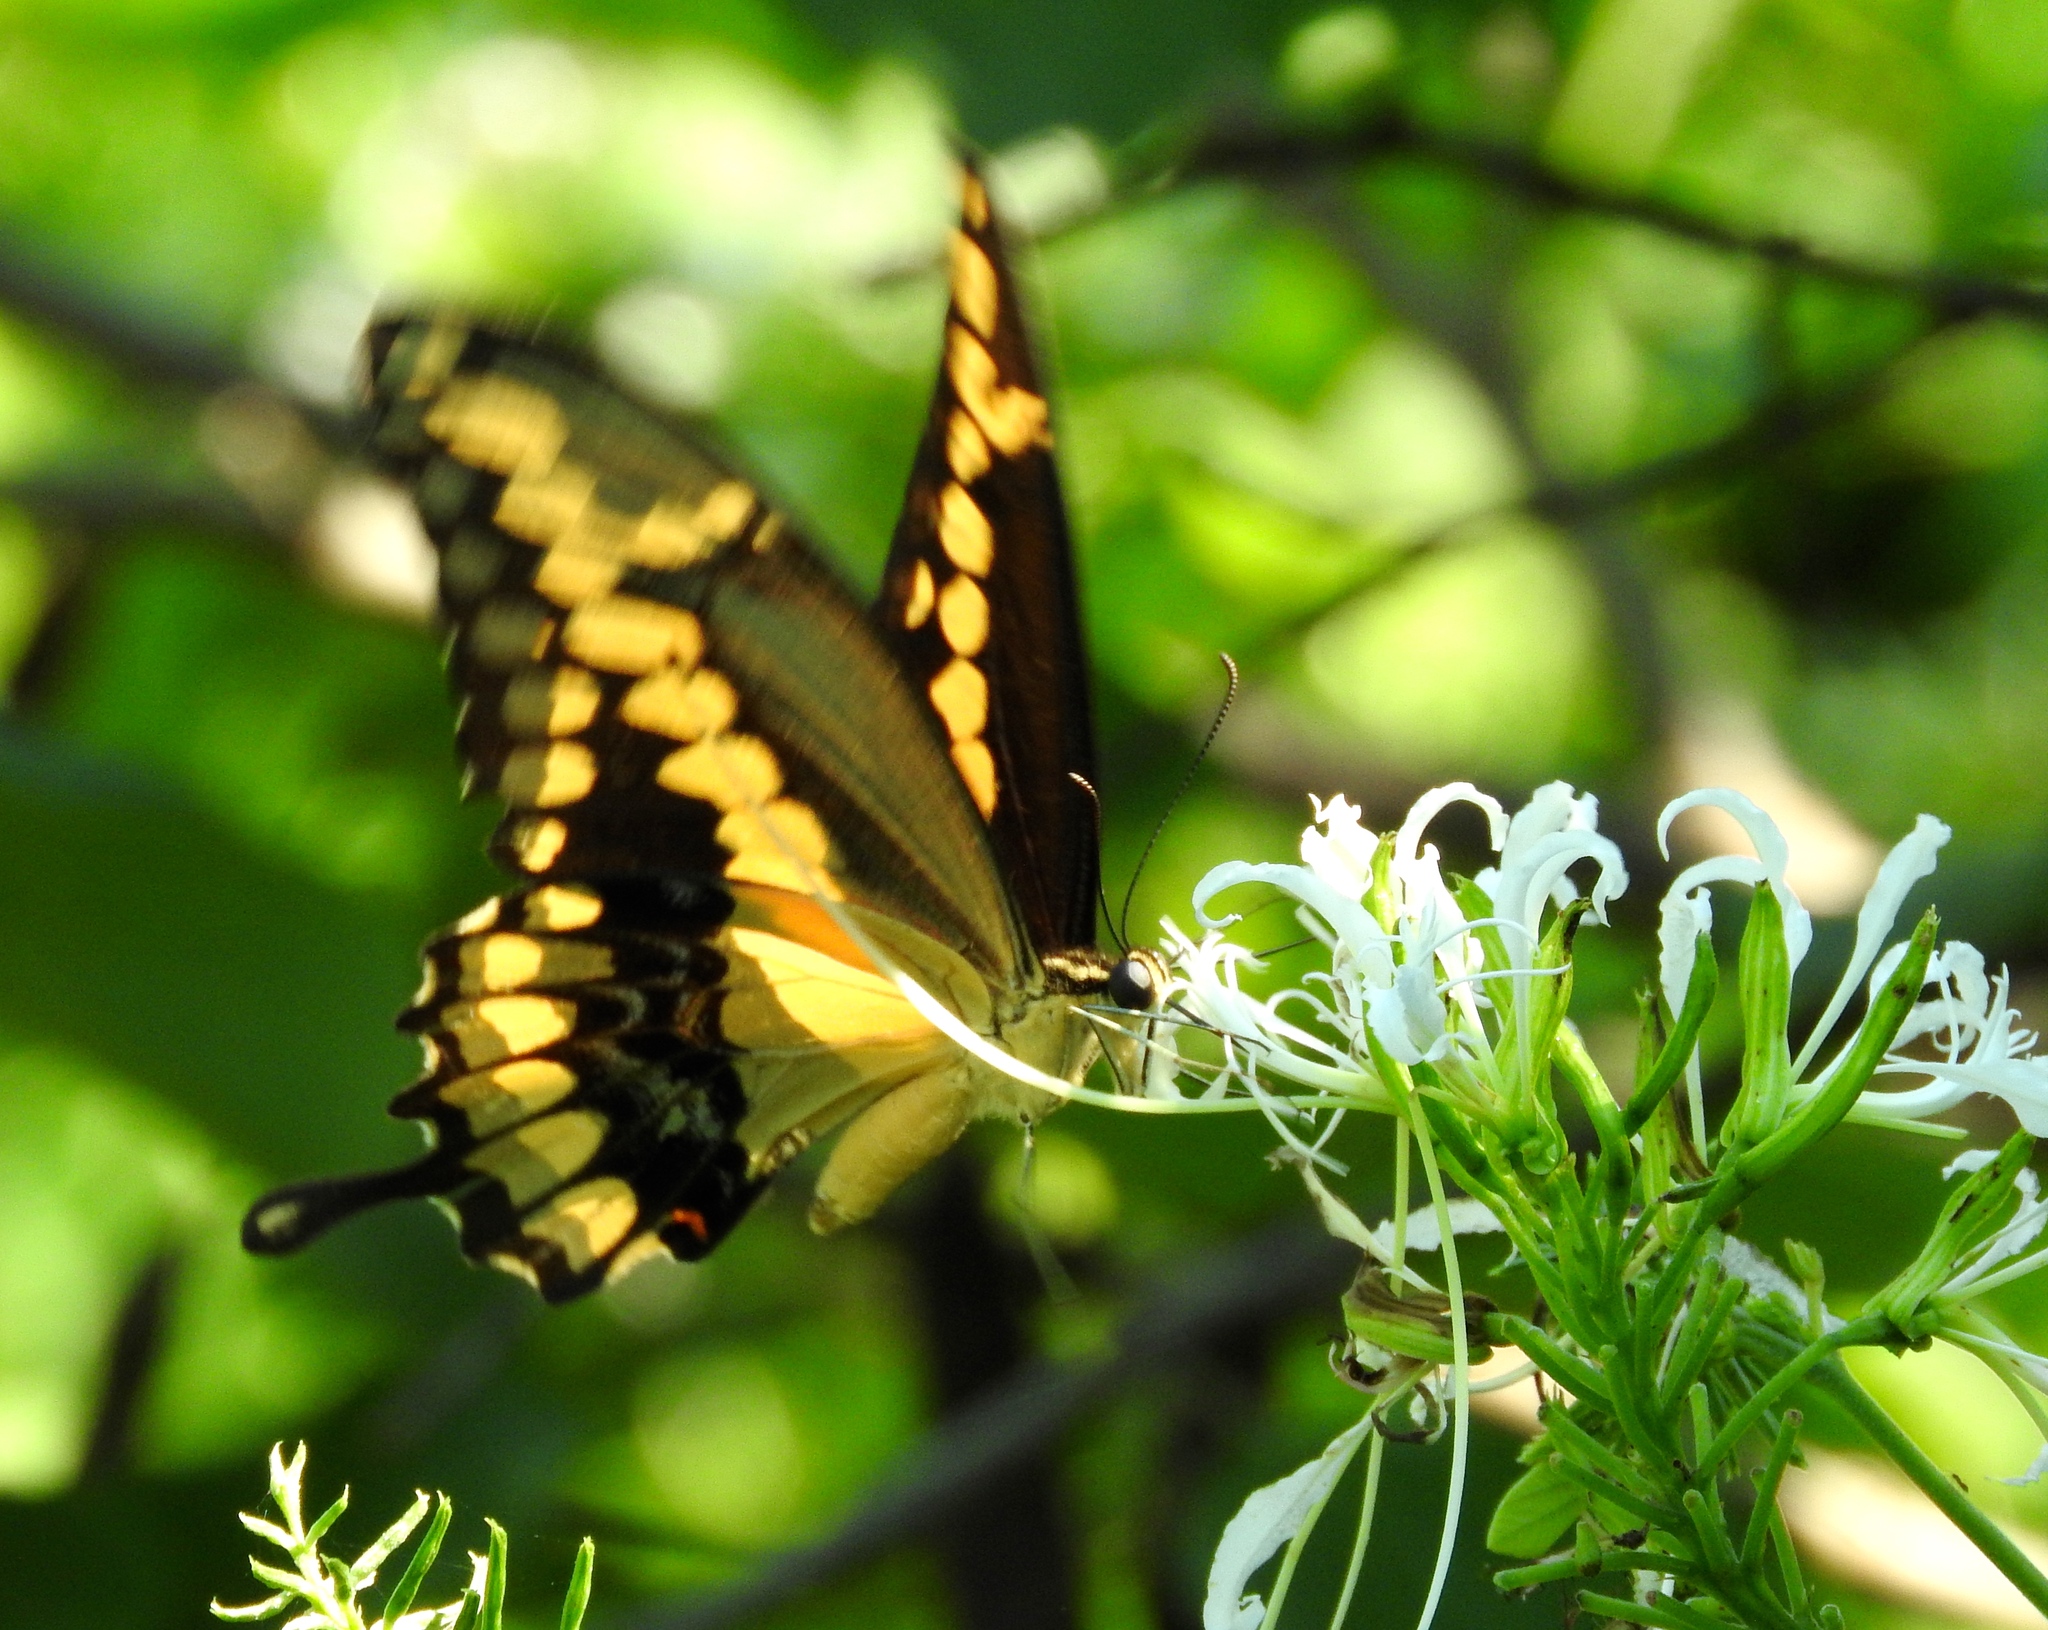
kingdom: Animalia
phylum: Arthropoda
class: Insecta
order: Lepidoptera
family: Papilionidae
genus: Papilio
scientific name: Papilio rumiko
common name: Western giant swallowtail
